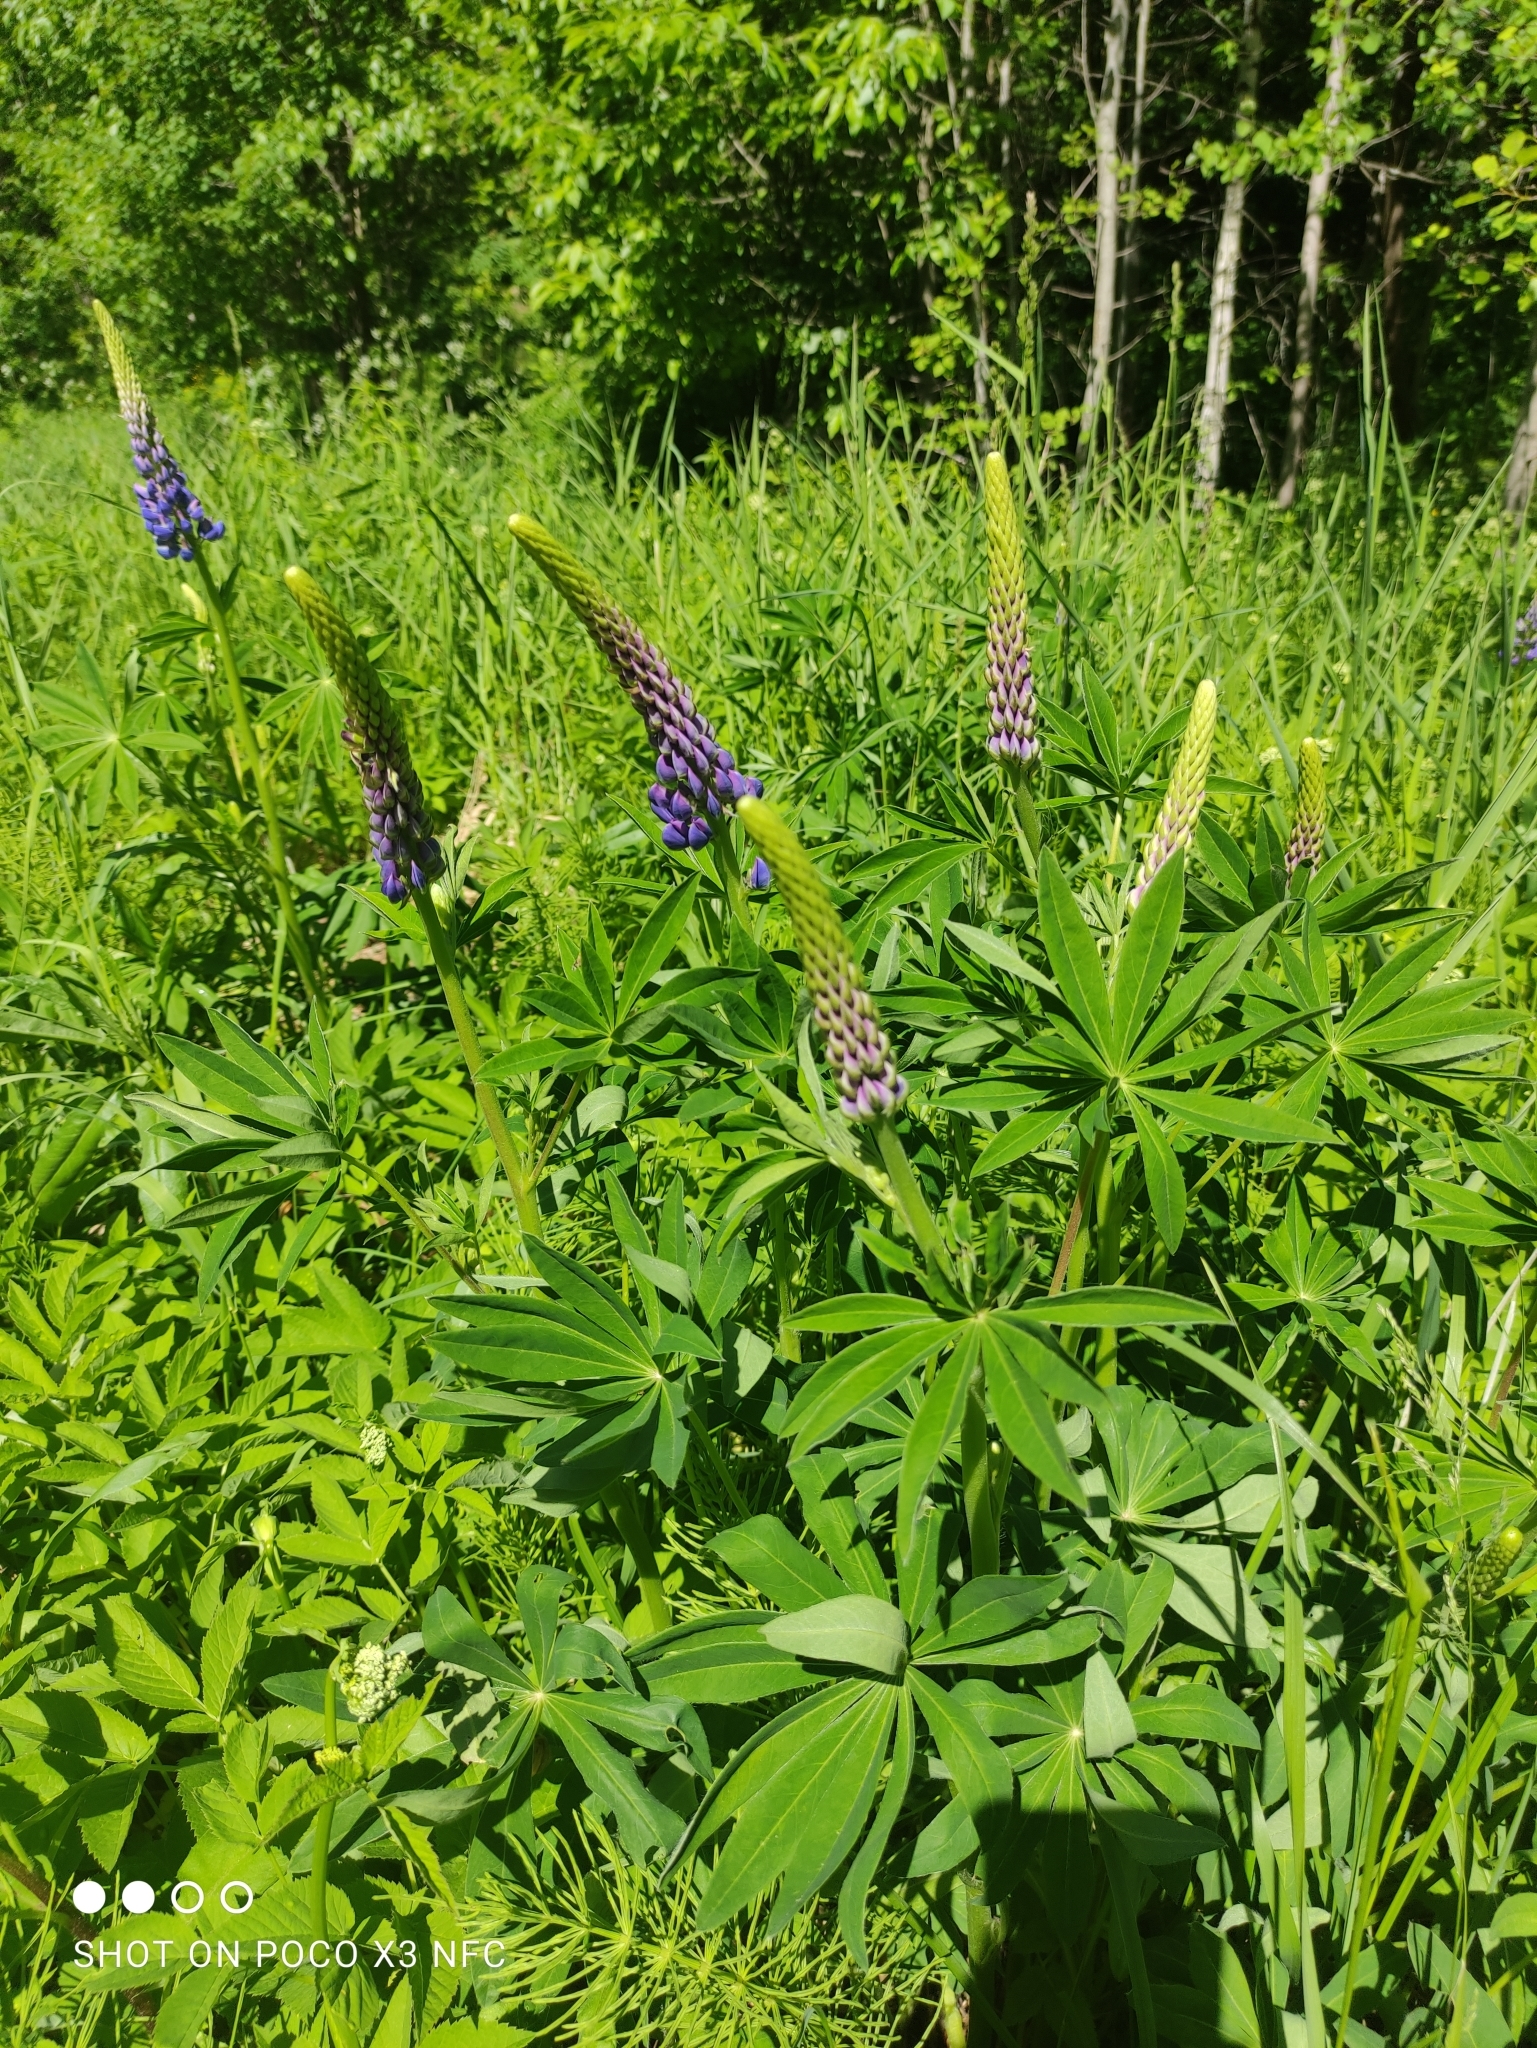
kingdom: Plantae
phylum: Tracheophyta
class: Magnoliopsida
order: Fabales
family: Fabaceae
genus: Lupinus
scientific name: Lupinus polyphyllus
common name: Garden lupin
